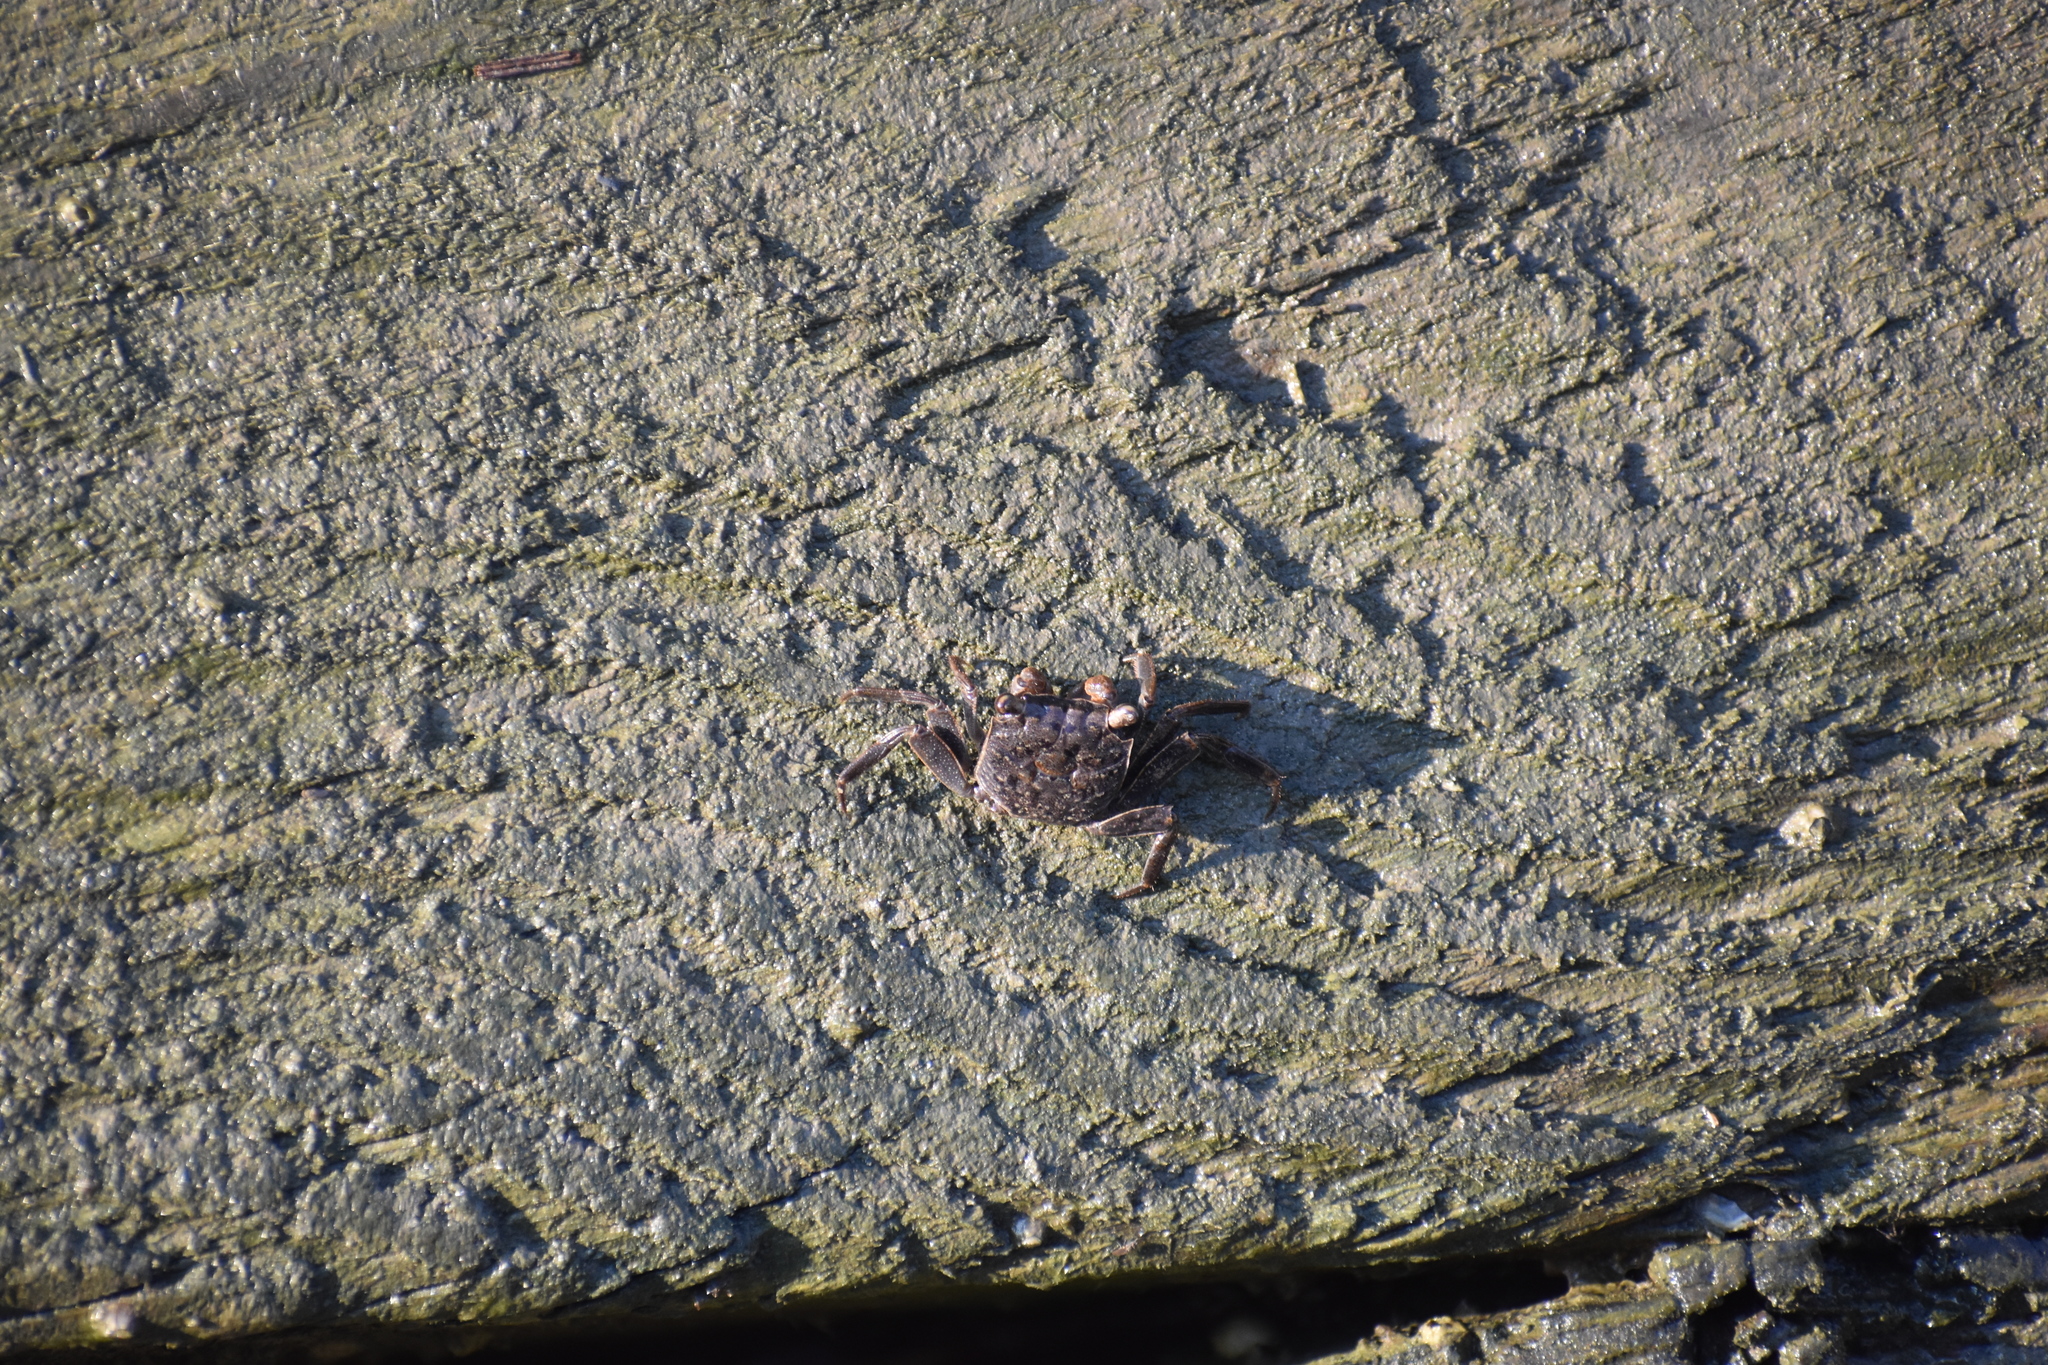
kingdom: Animalia
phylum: Arthropoda
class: Malacostraca
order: Decapoda
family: Sesarmidae
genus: Armases
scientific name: Armases cinereum
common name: Squareback marsh crab
